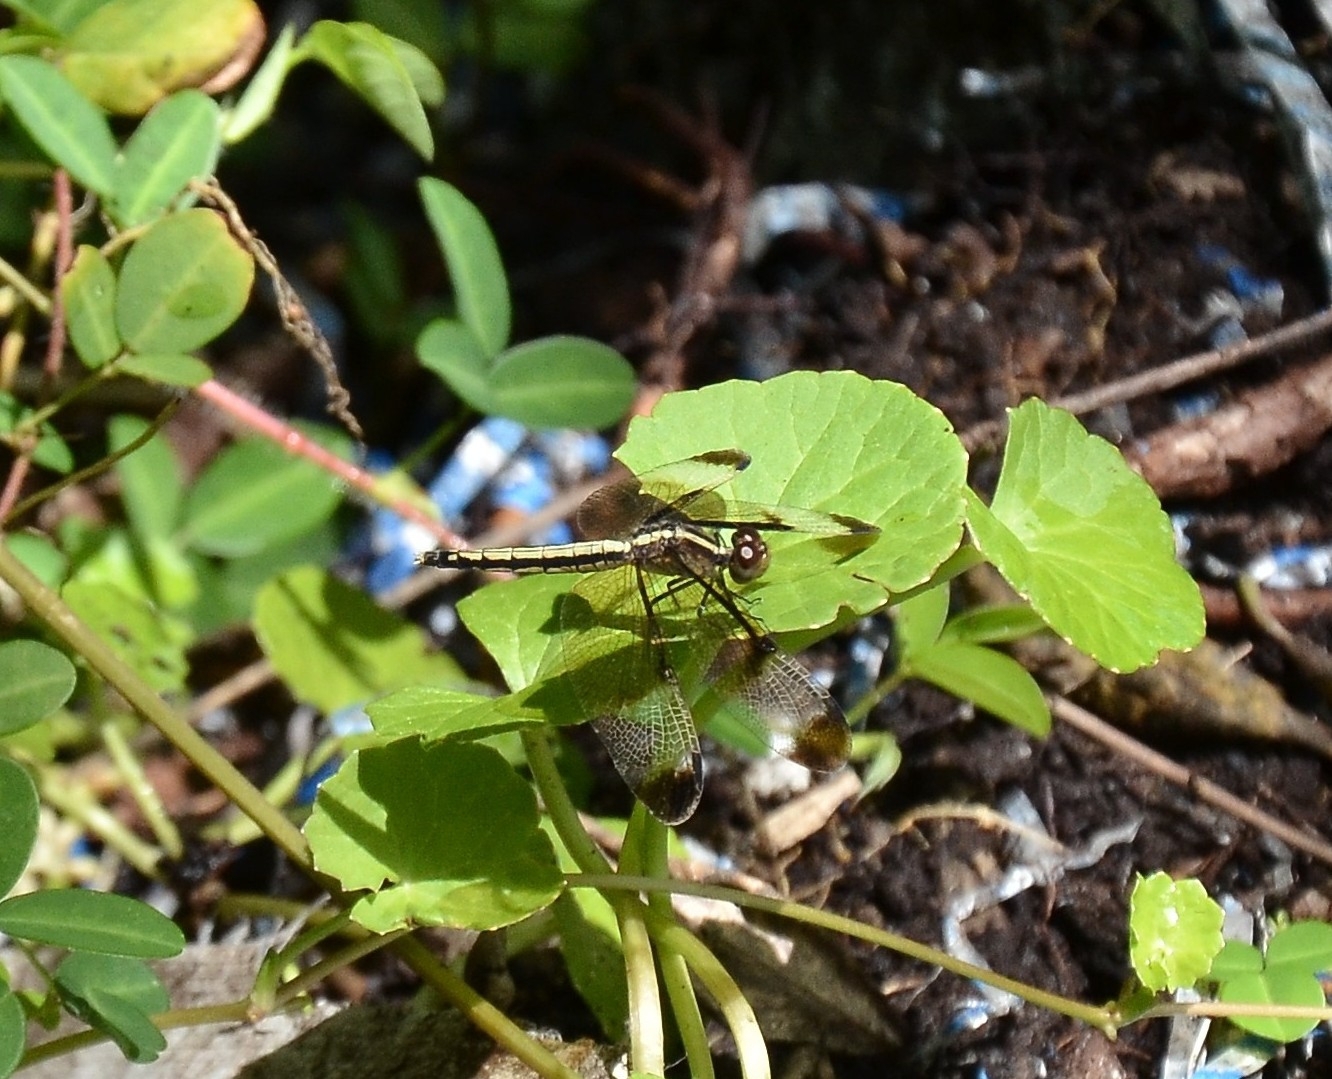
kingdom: Animalia
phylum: Arthropoda
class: Insecta
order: Odonata
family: Libellulidae
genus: Neurothemis
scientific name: Neurothemis tullia
